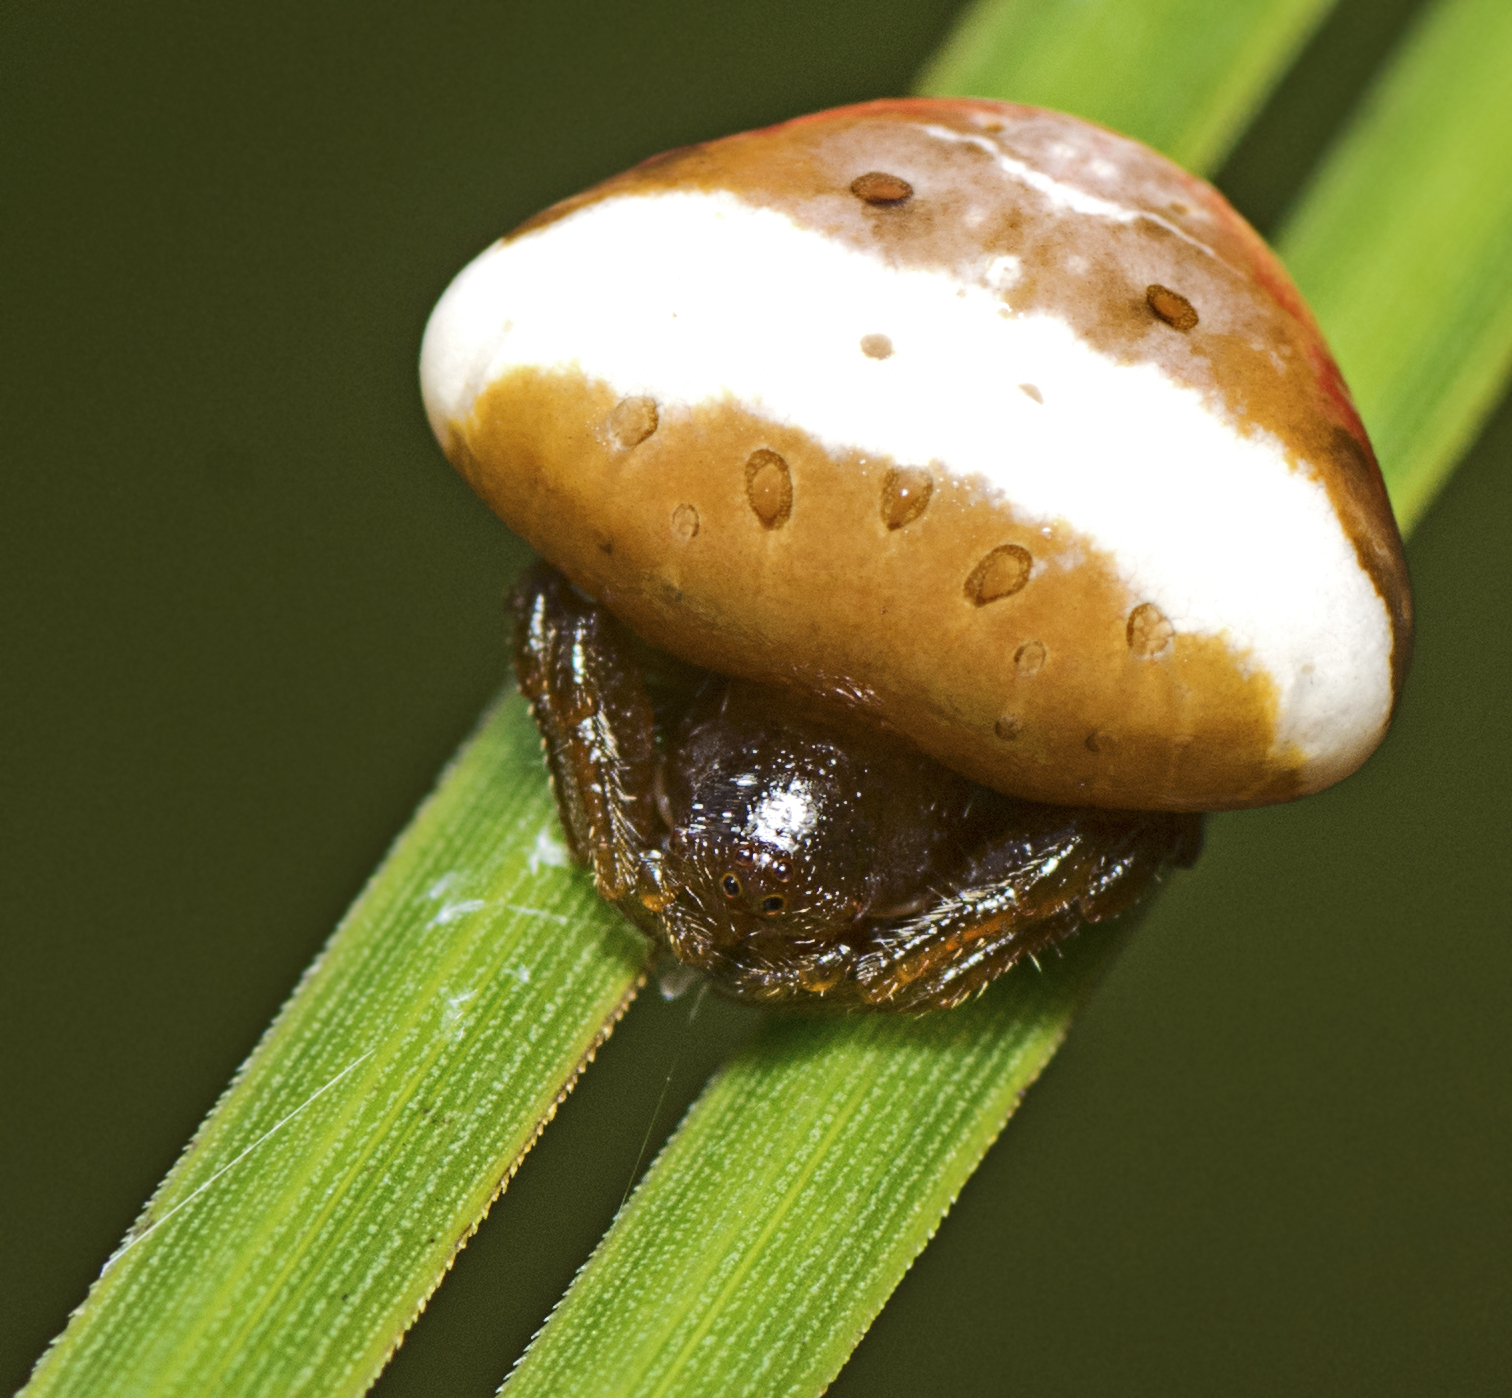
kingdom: Animalia
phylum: Arthropoda
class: Arachnida
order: Araneae
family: Araneidae
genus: Cyrtarachne
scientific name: Cyrtarachne tricolor
